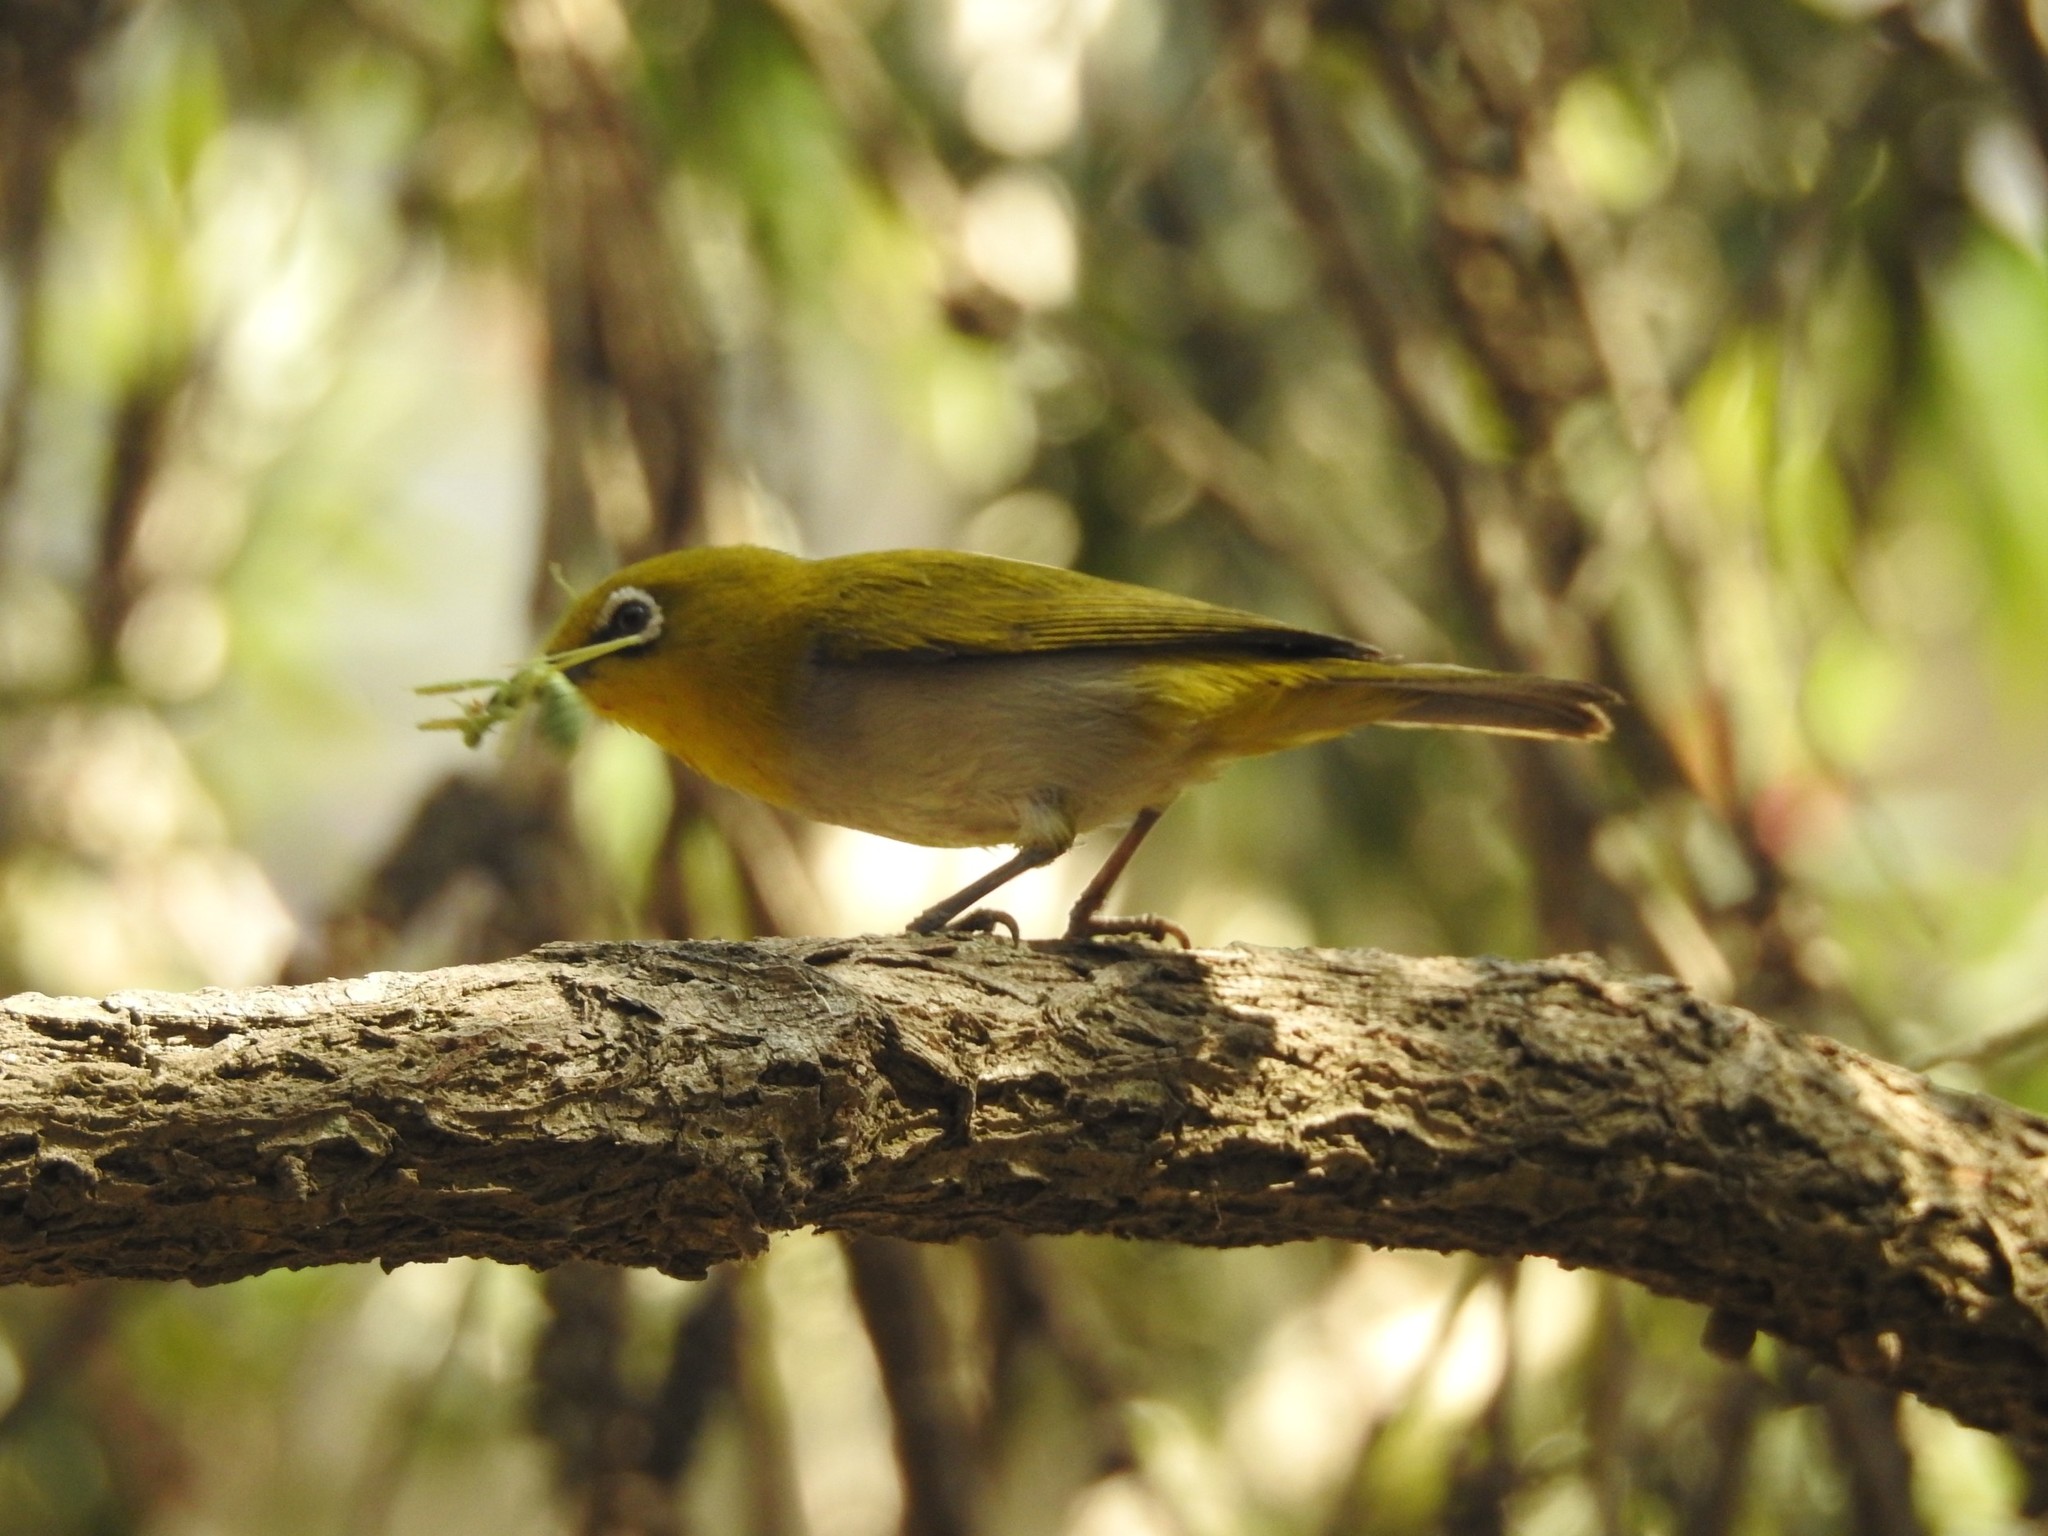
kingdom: Animalia
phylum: Chordata
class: Aves
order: Passeriformes
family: Zosteropidae
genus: Zosterops
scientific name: Zosterops palpebrosus
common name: Oriental white-eye
